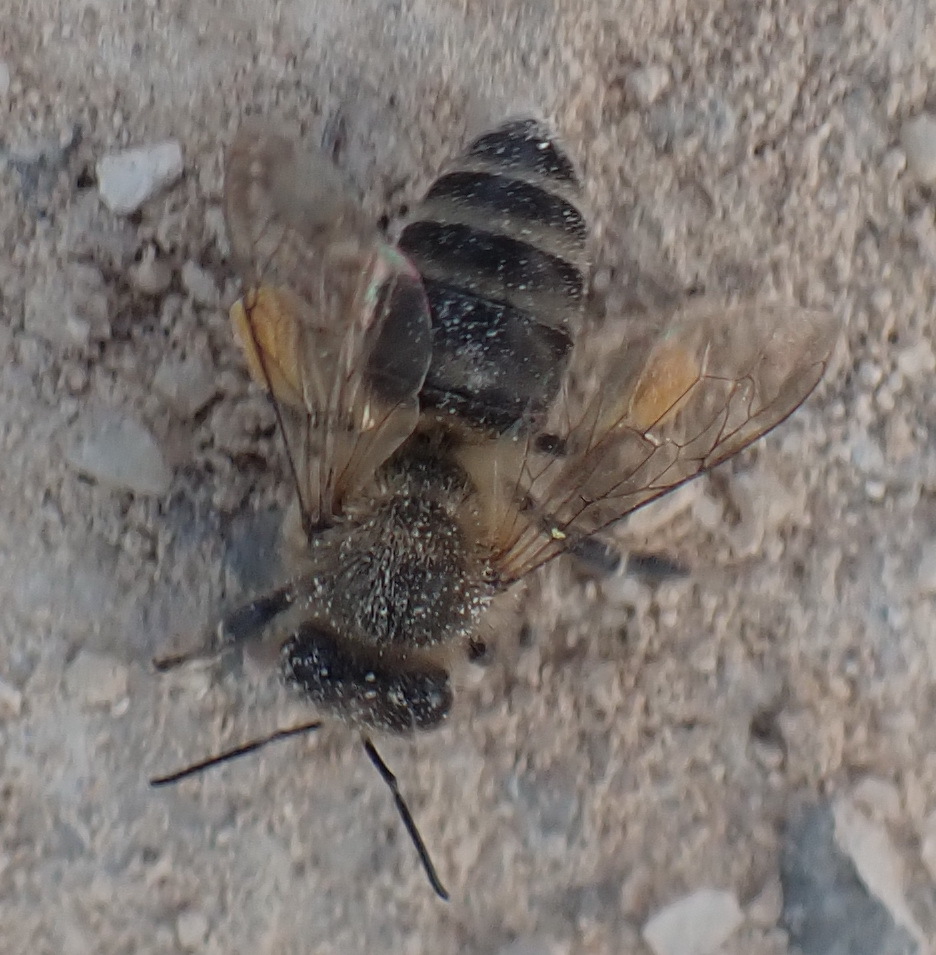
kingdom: Animalia
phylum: Arthropoda
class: Insecta
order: Hymenoptera
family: Apidae
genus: Apis
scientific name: Apis mellifera
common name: Honey bee
